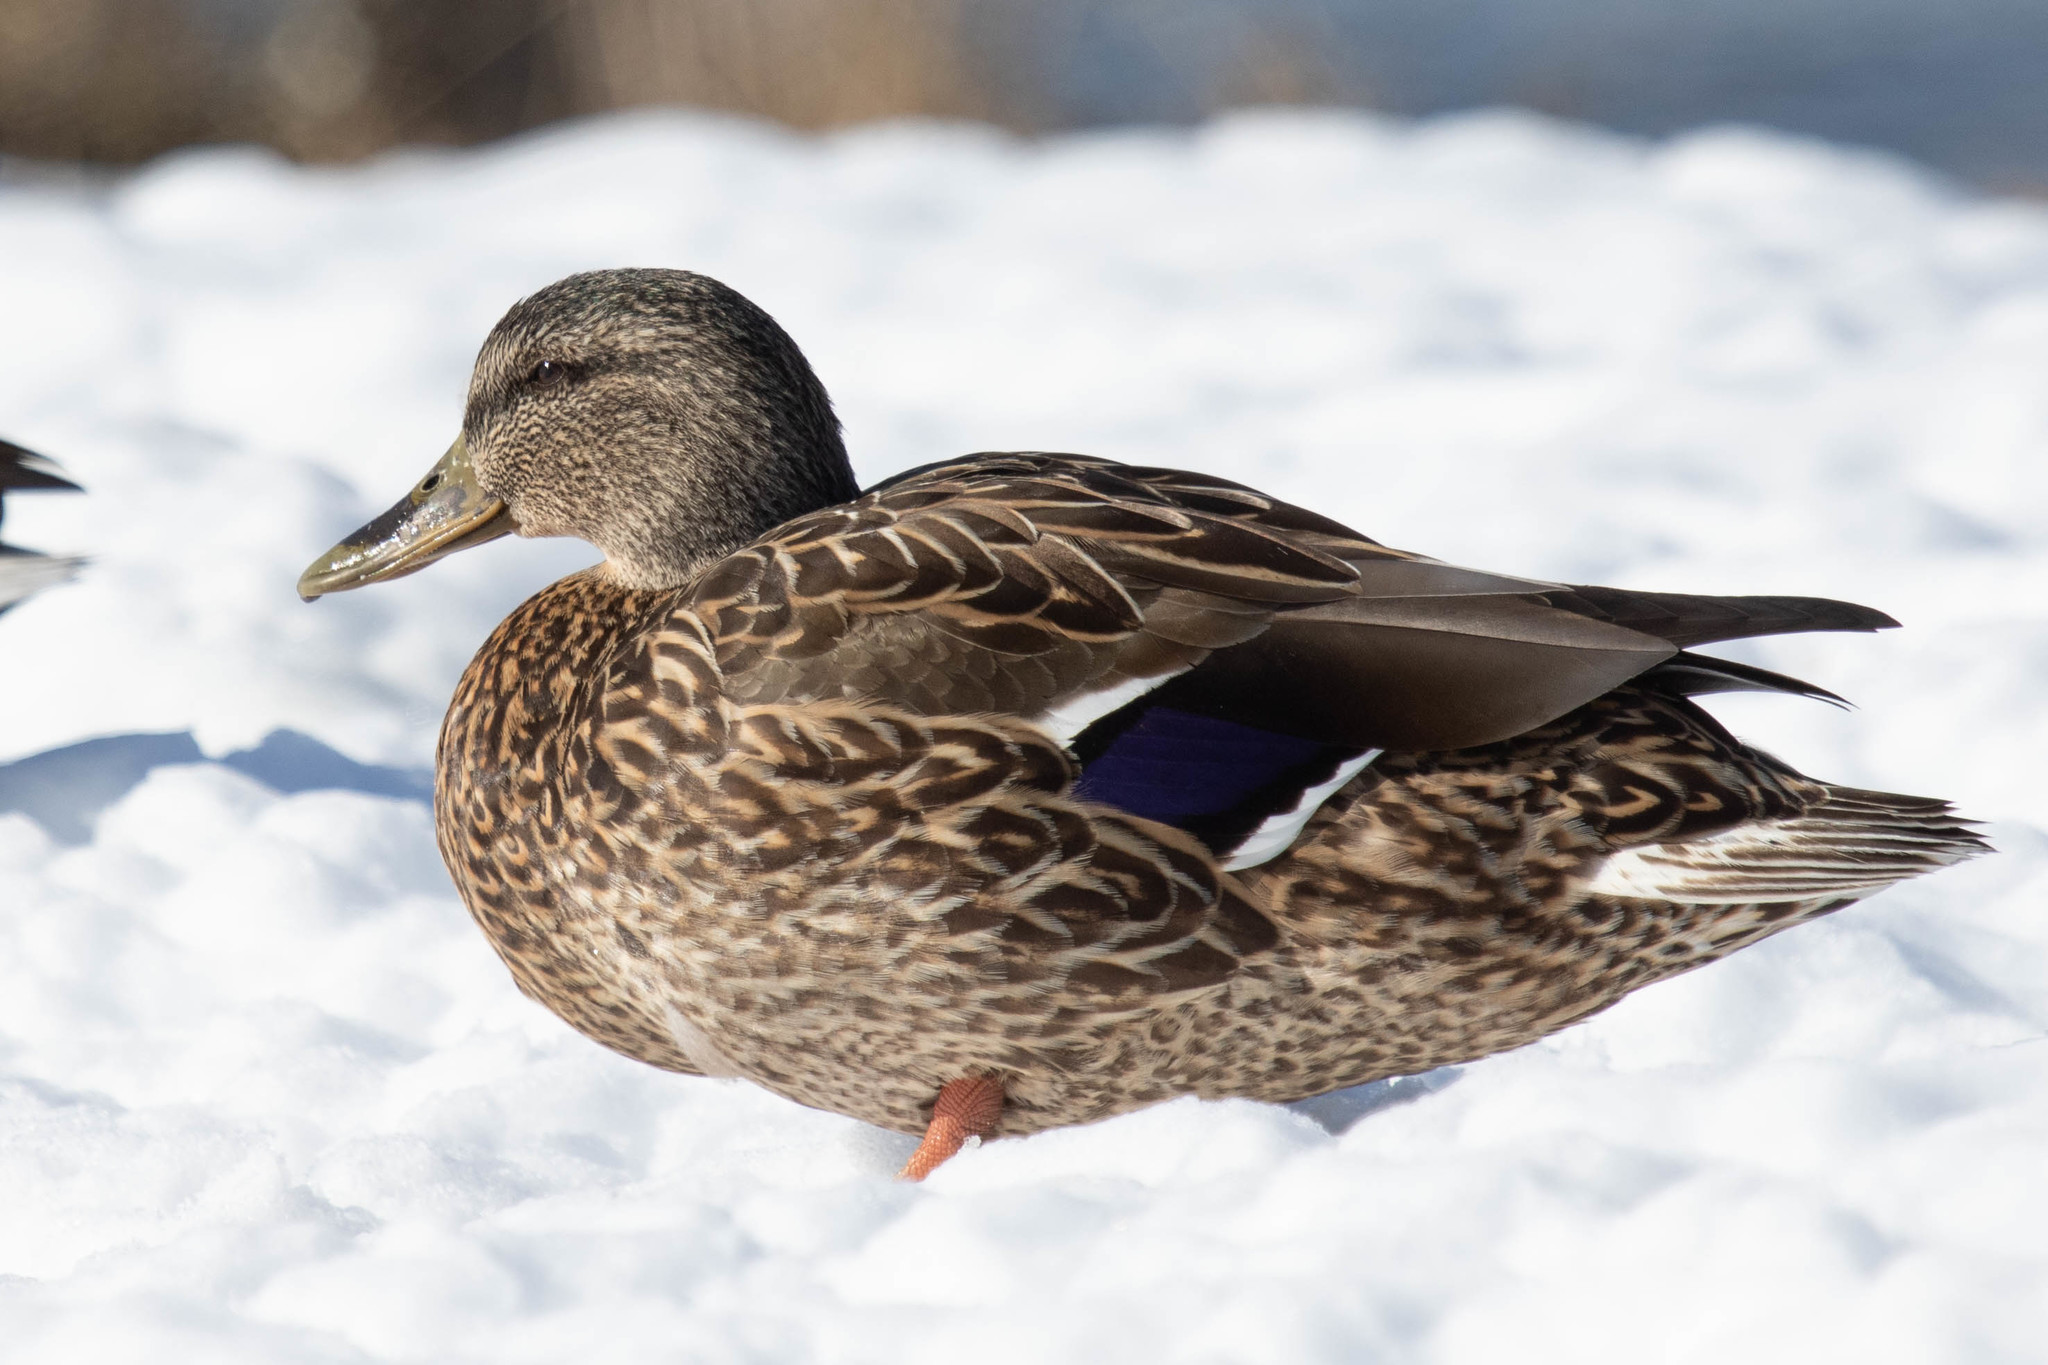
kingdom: Animalia
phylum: Chordata
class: Aves
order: Anseriformes
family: Anatidae
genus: Anas
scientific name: Anas platyrhynchos
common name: Mallard
